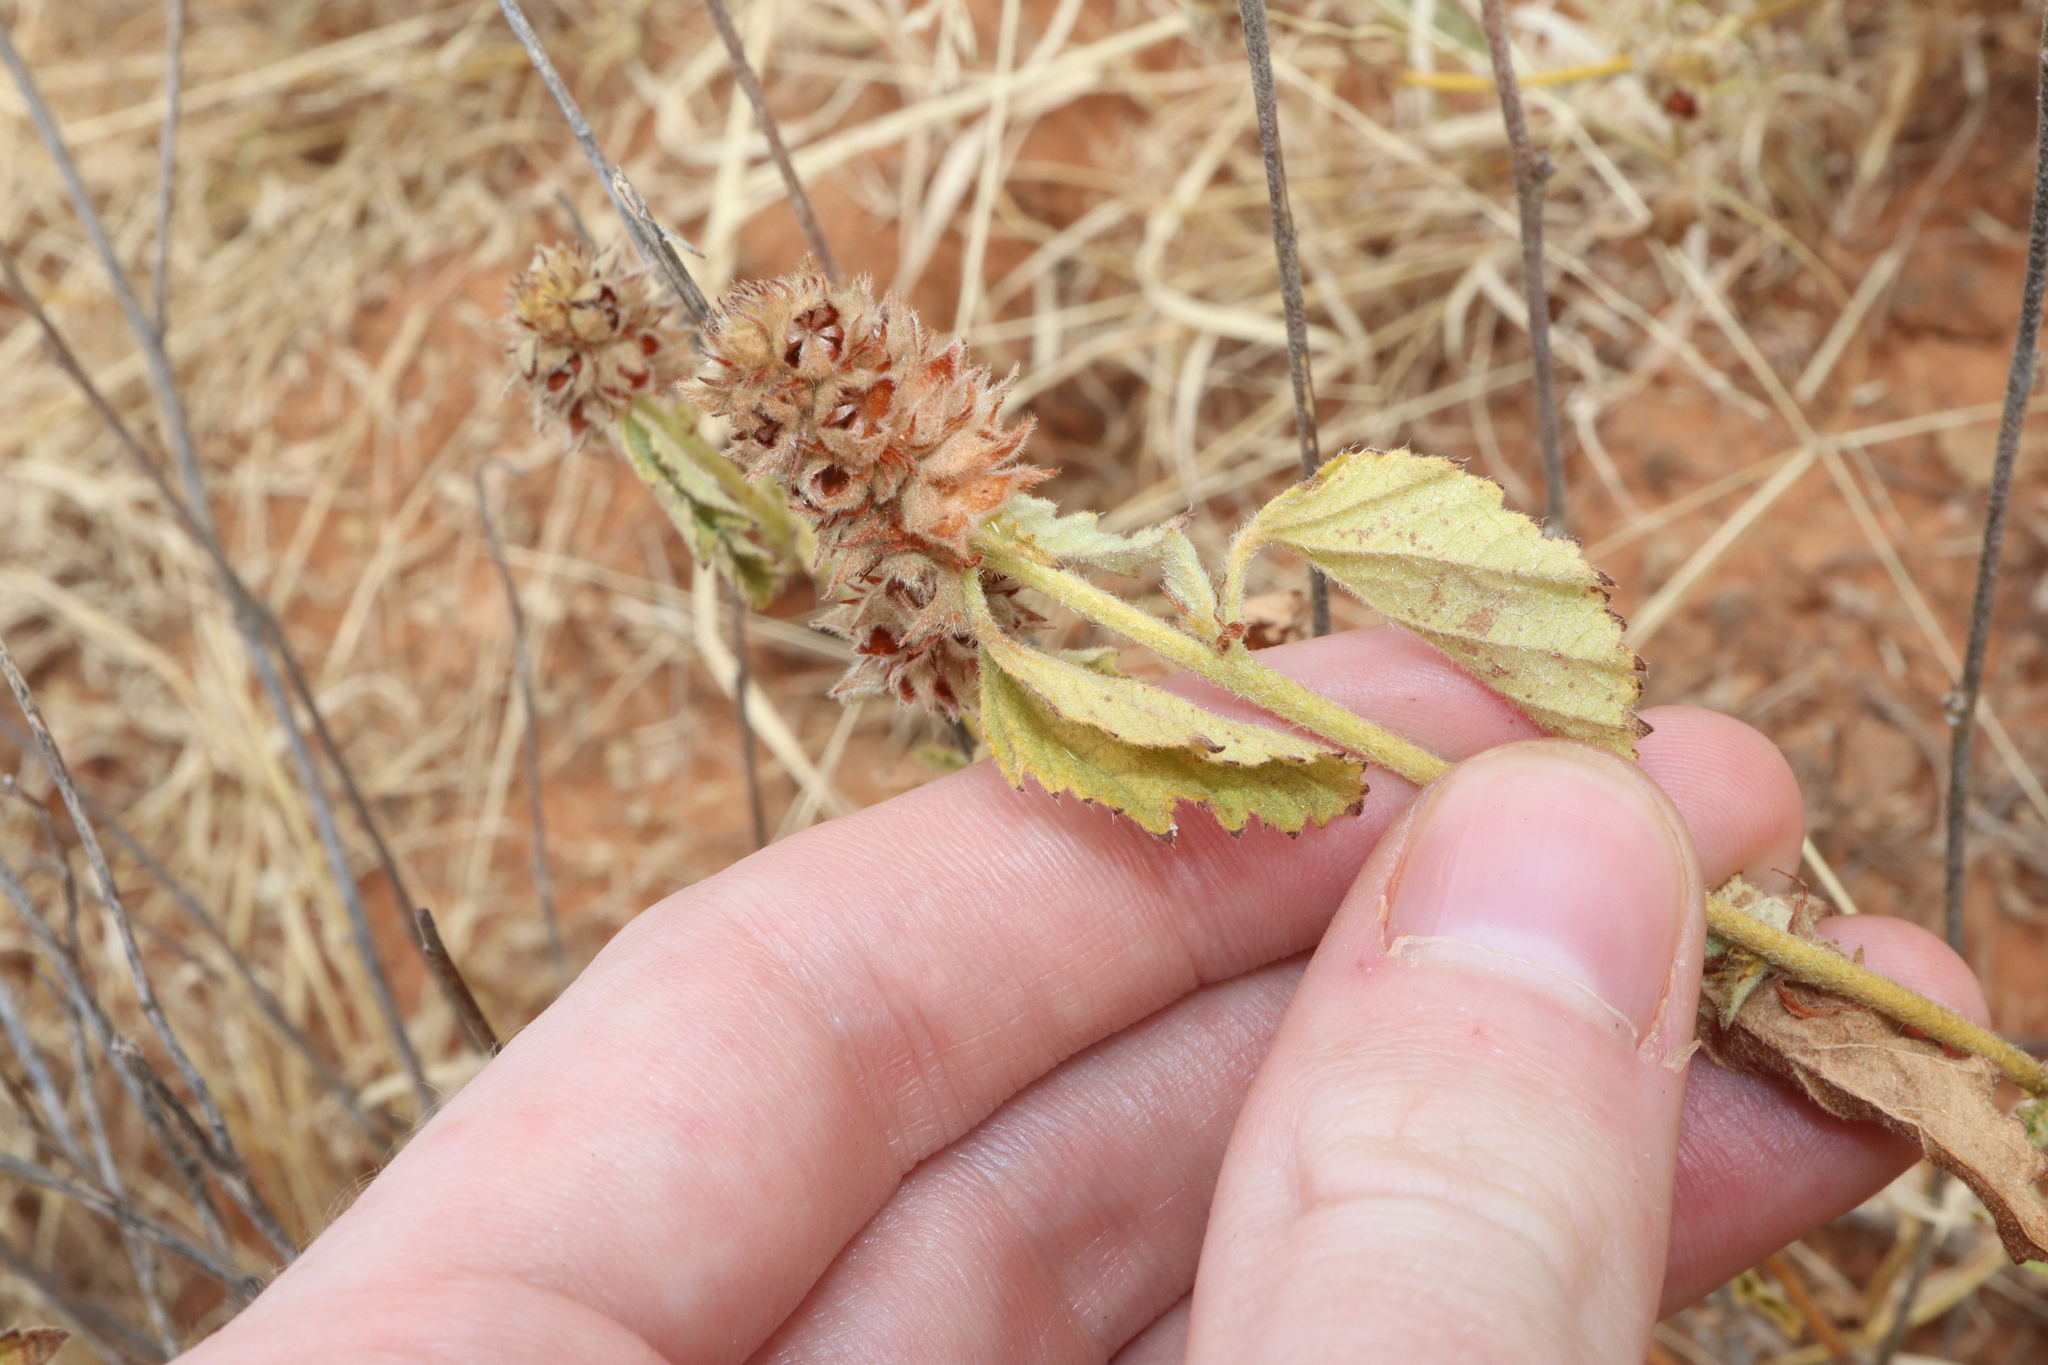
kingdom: Plantae
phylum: Tracheophyta
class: Magnoliopsida
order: Malvales
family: Malvaceae
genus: Malvastrum
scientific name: Malvastrum americanum
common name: Spiked malvastrum
